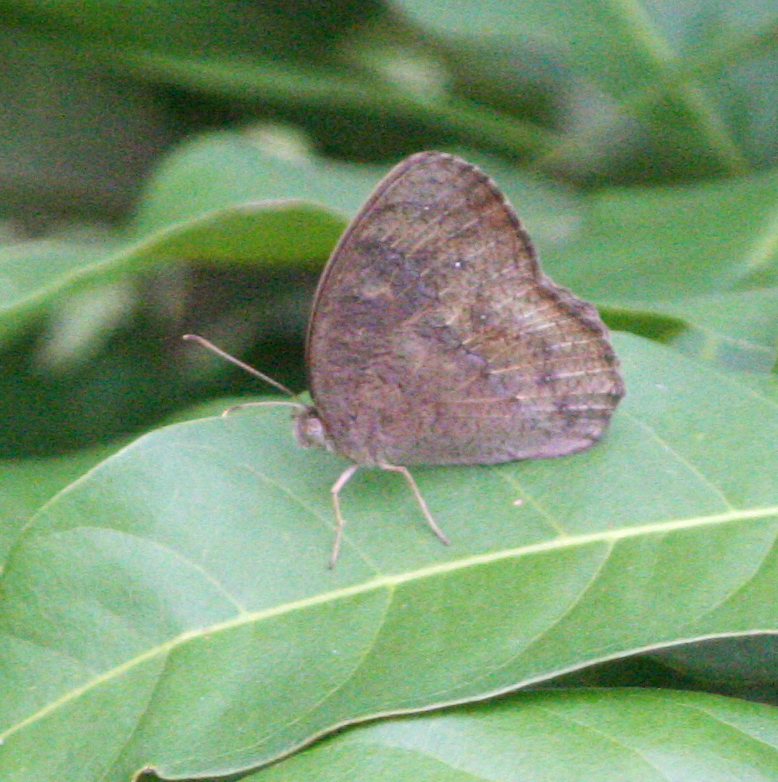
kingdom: Animalia
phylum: Arthropoda
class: Insecta
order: Lepidoptera
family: Nymphalidae
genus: Mycalesis
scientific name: Mycalesis perseus
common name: Dingy bushbrown
